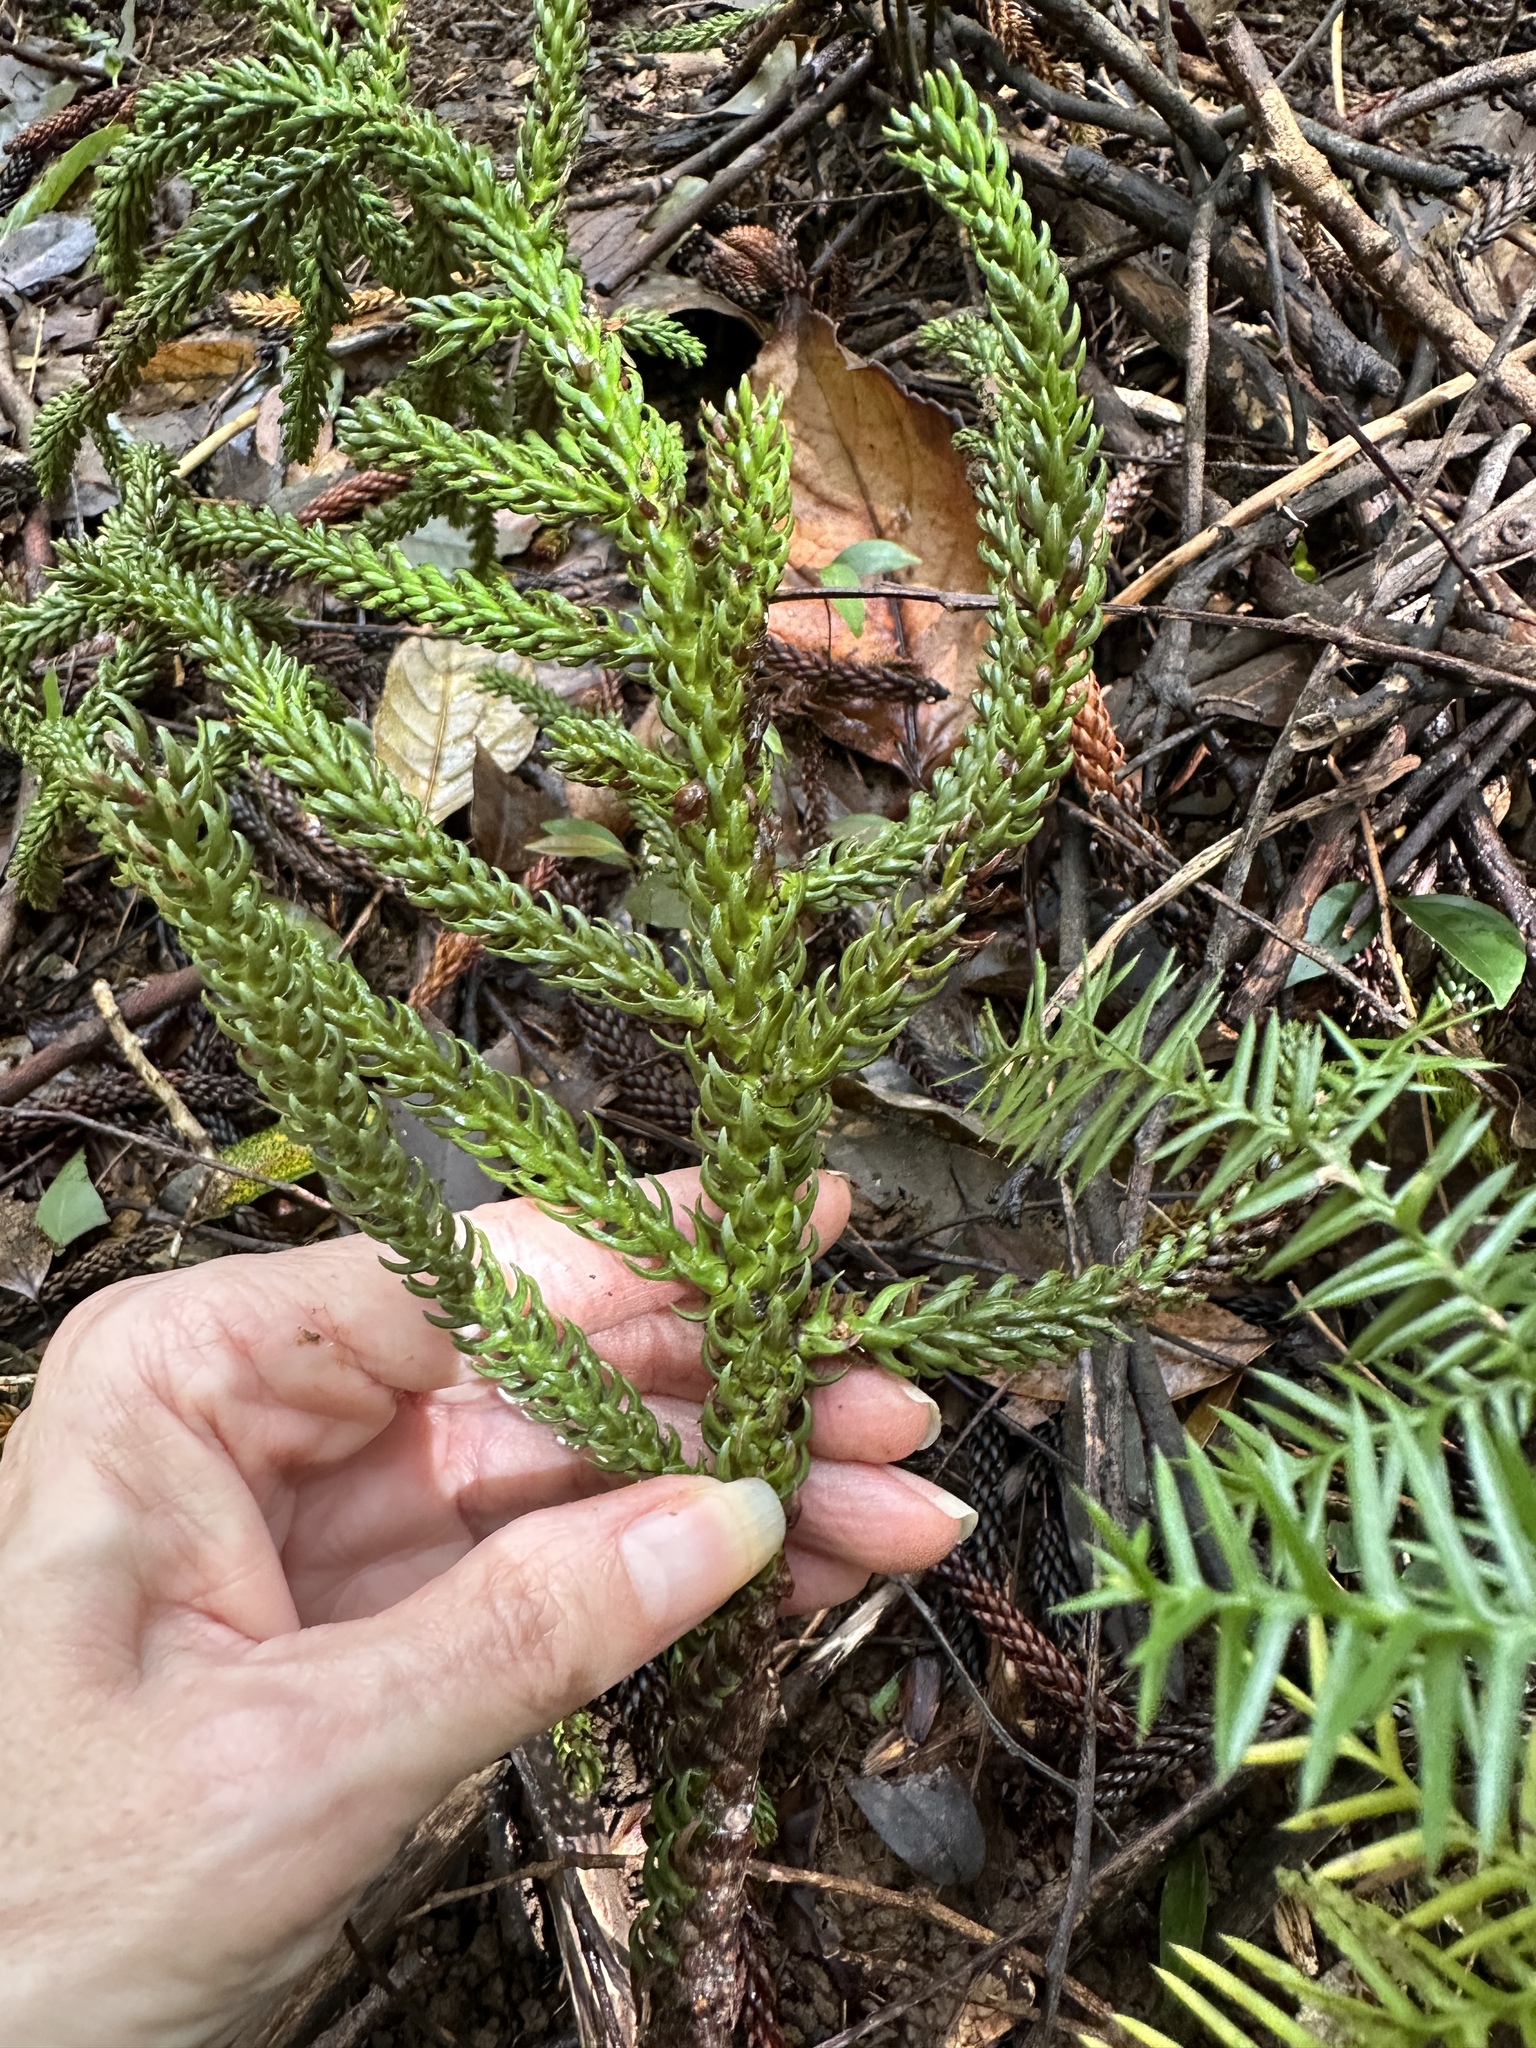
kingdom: Plantae
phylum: Tracheophyta
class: Pinopsida
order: Pinales
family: Araucariaceae
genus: Araucaria
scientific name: Araucaria columnaris
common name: Coral reef araucaria
